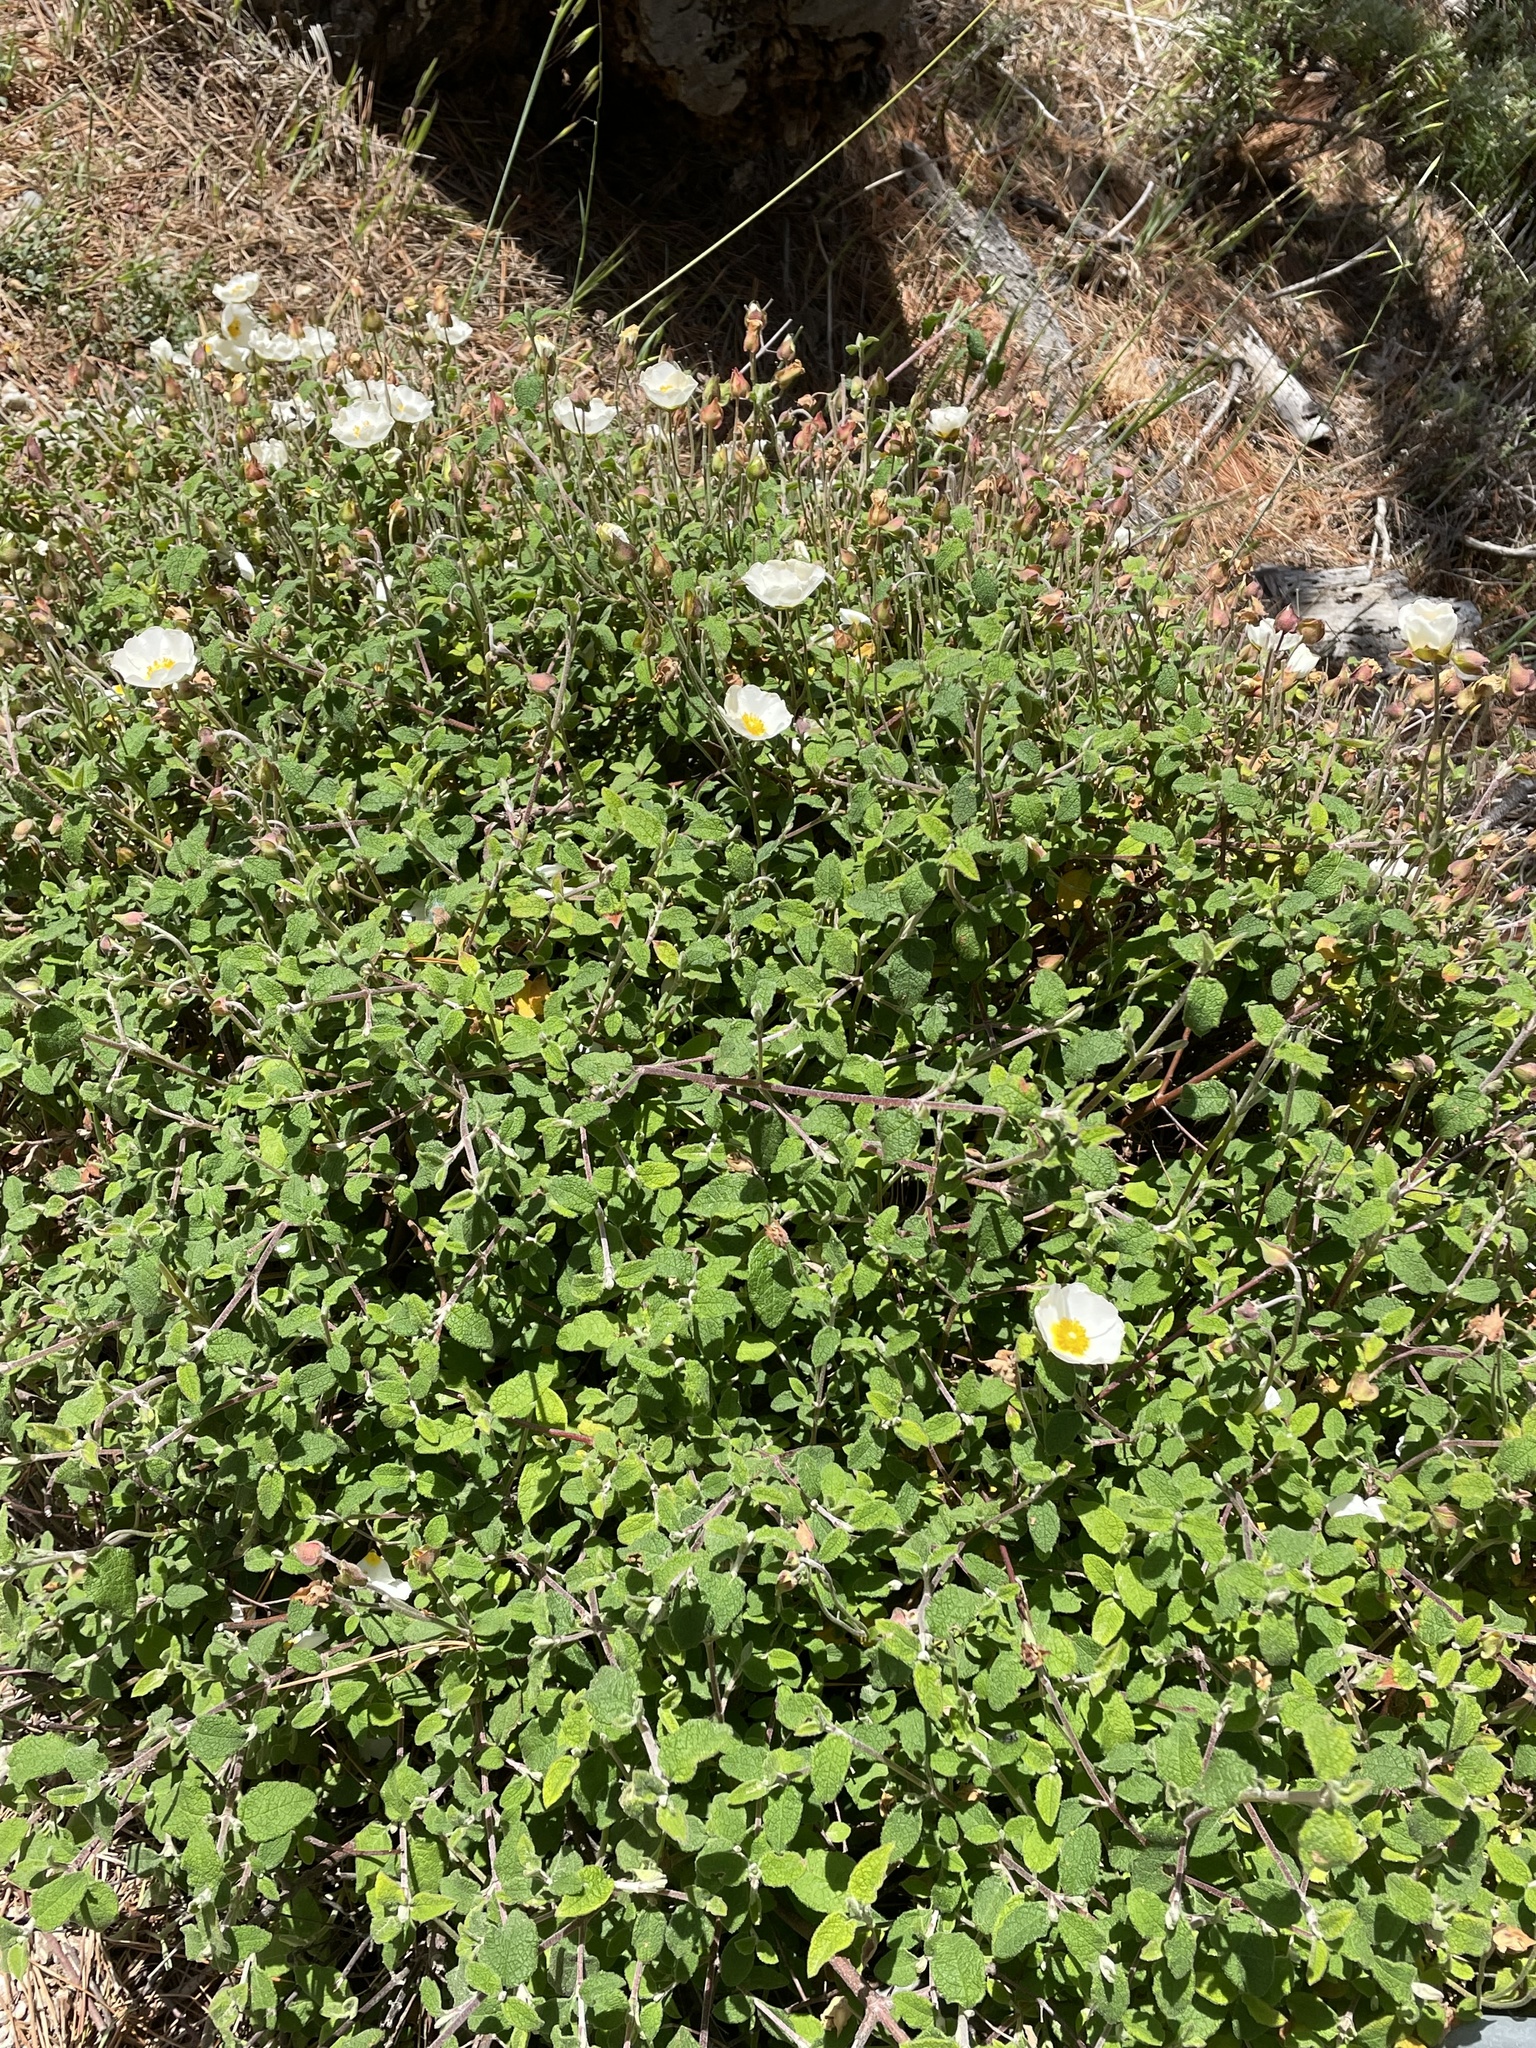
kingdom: Plantae
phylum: Tracheophyta
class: Magnoliopsida
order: Malvales
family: Cistaceae
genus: Cistus
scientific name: Cistus salviifolius
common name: Salvia cistus
